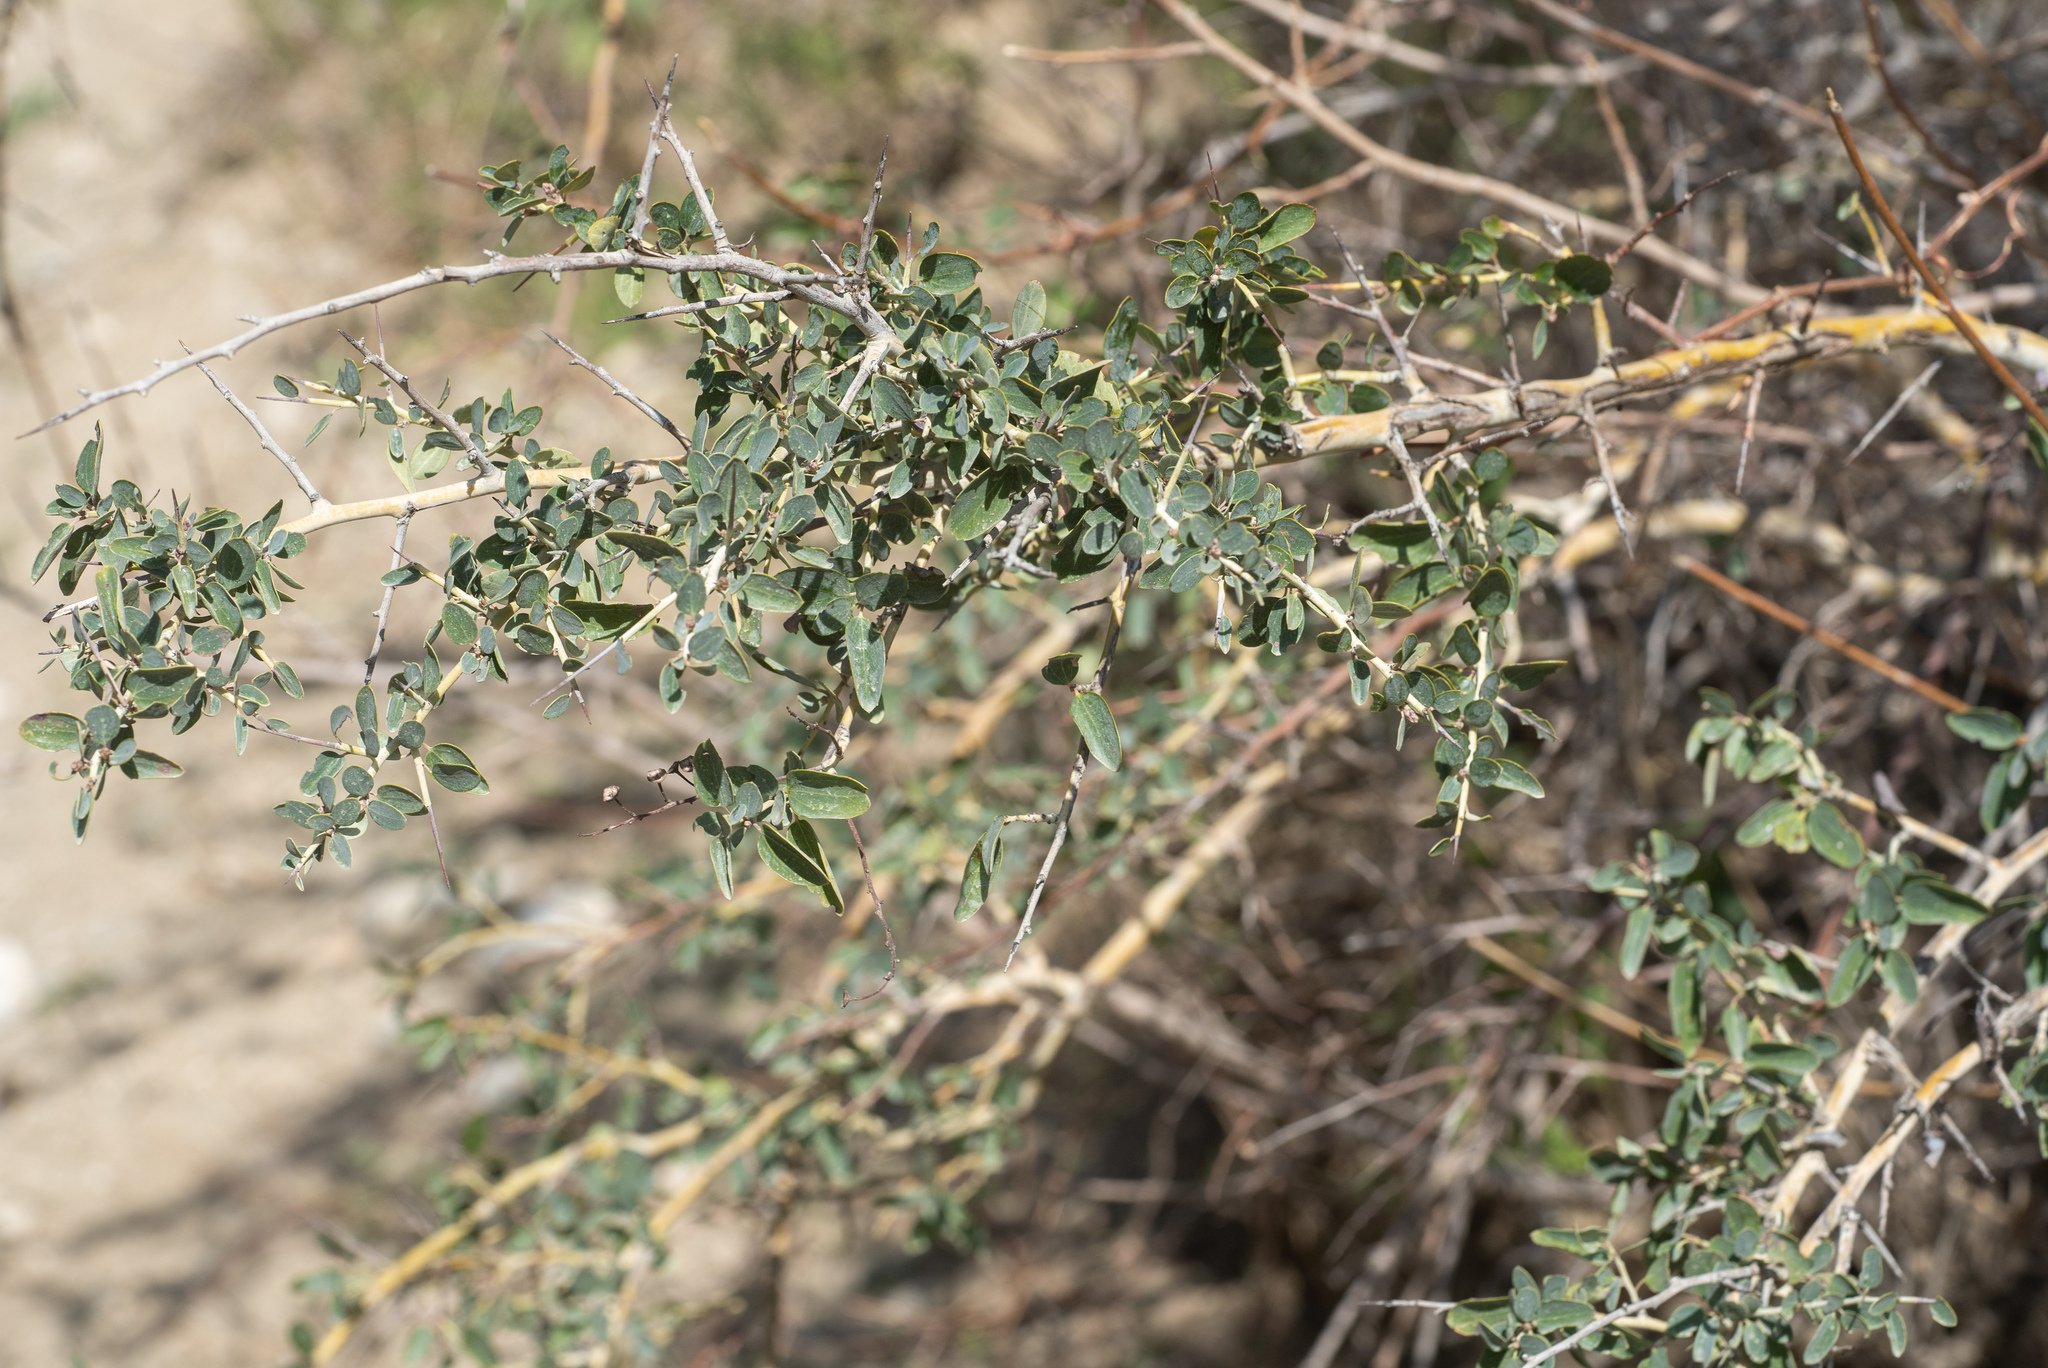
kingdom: Plantae
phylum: Tracheophyta
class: Magnoliopsida
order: Rosales
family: Rhamnaceae
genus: Ceanothus
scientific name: Ceanothus leucodermis
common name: Chaparral whitethorn
